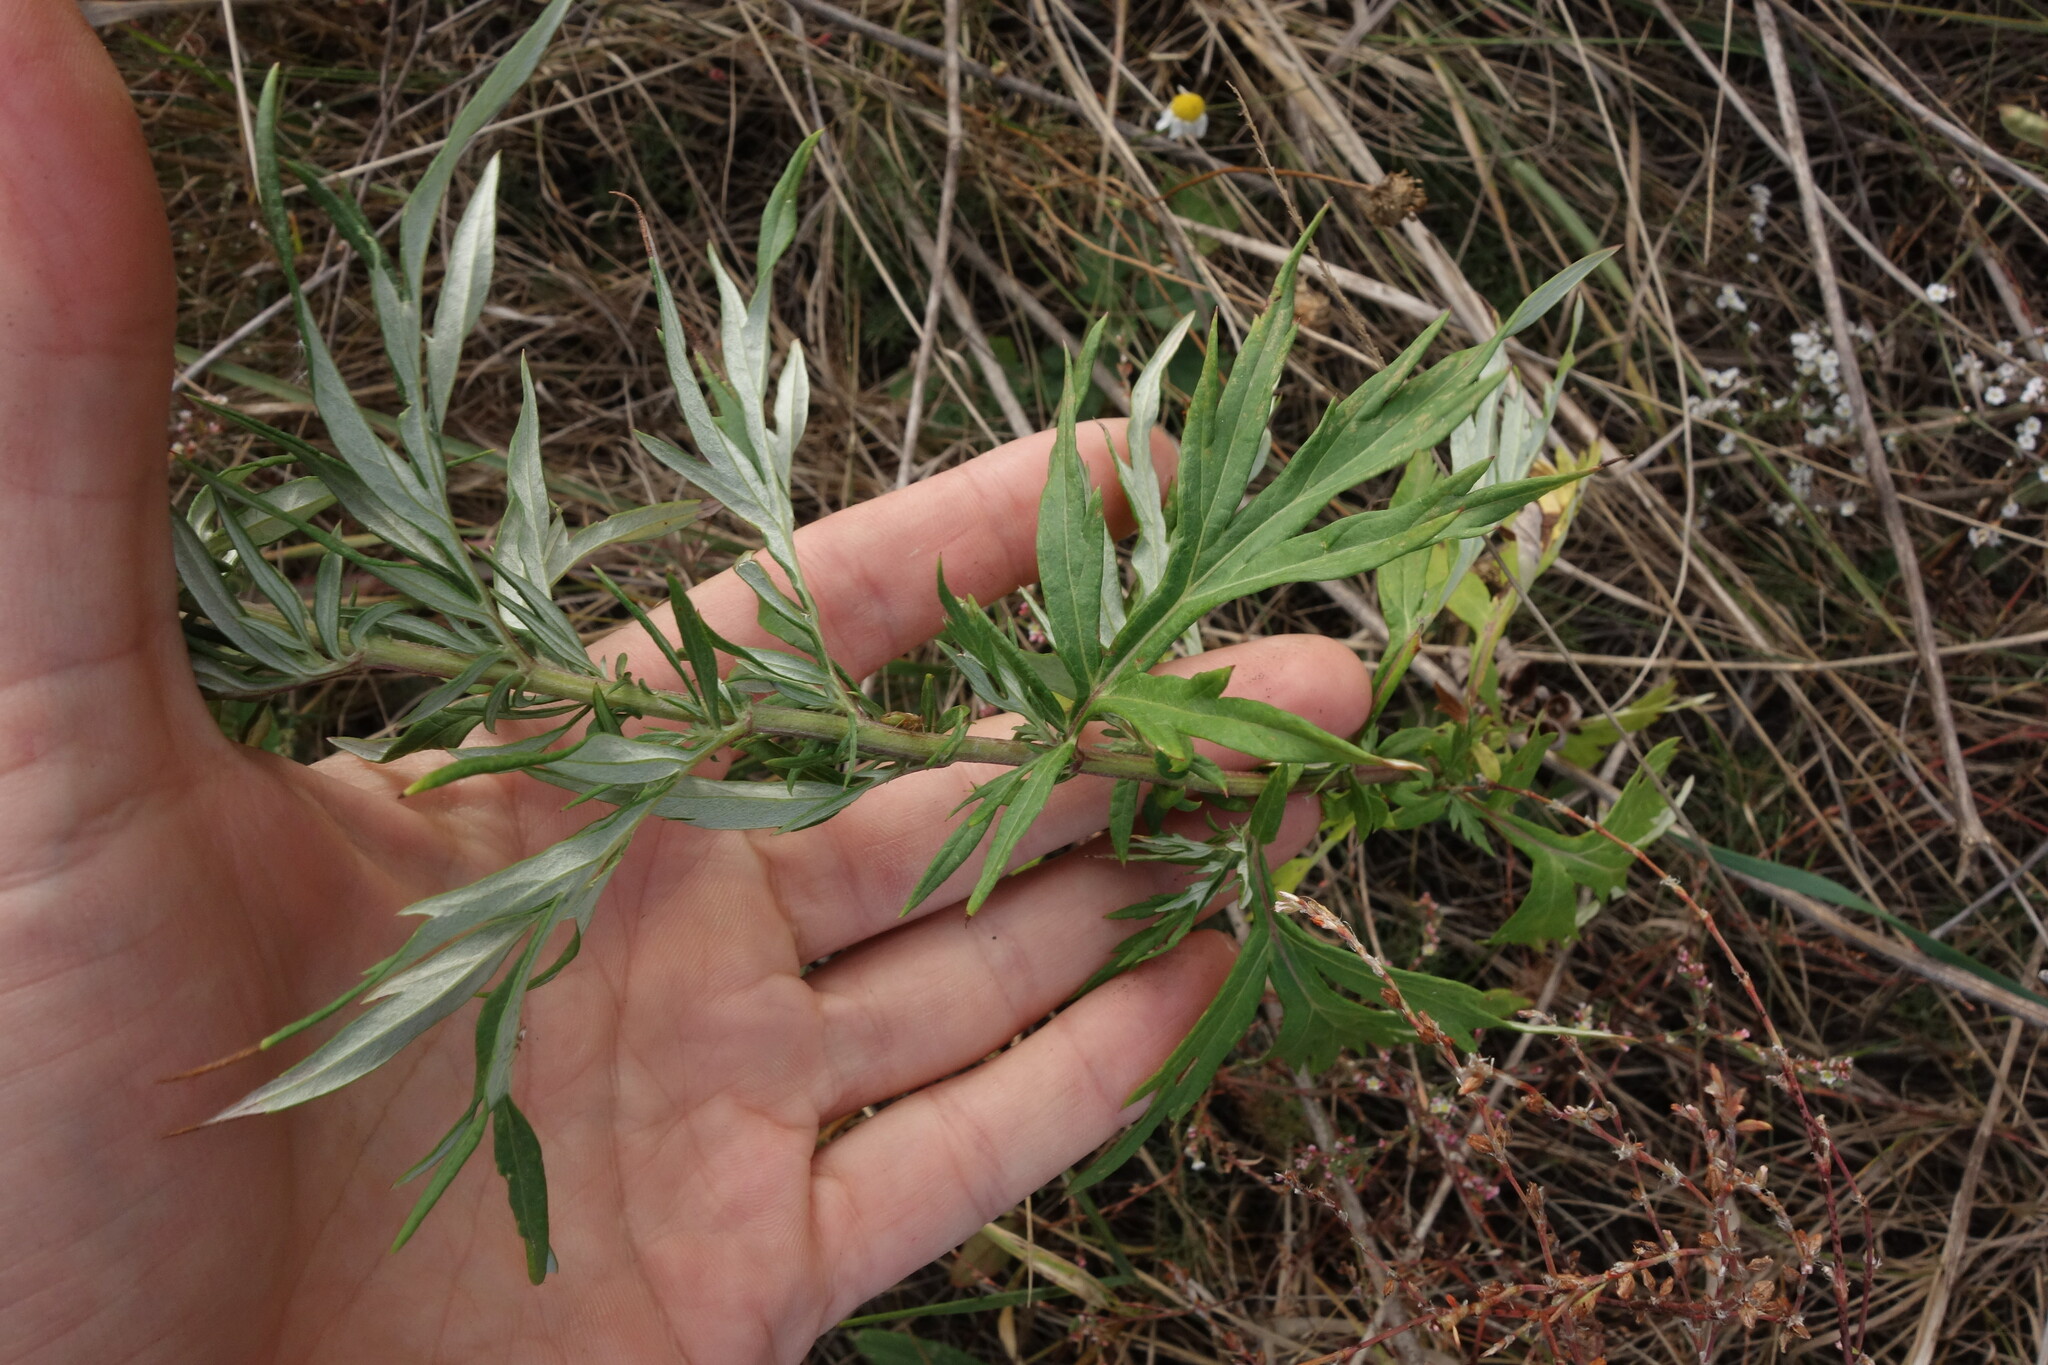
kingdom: Plantae
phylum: Tracheophyta
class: Magnoliopsida
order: Asterales
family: Asteraceae
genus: Artemisia
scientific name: Artemisia vulgaris
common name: Mugwort
